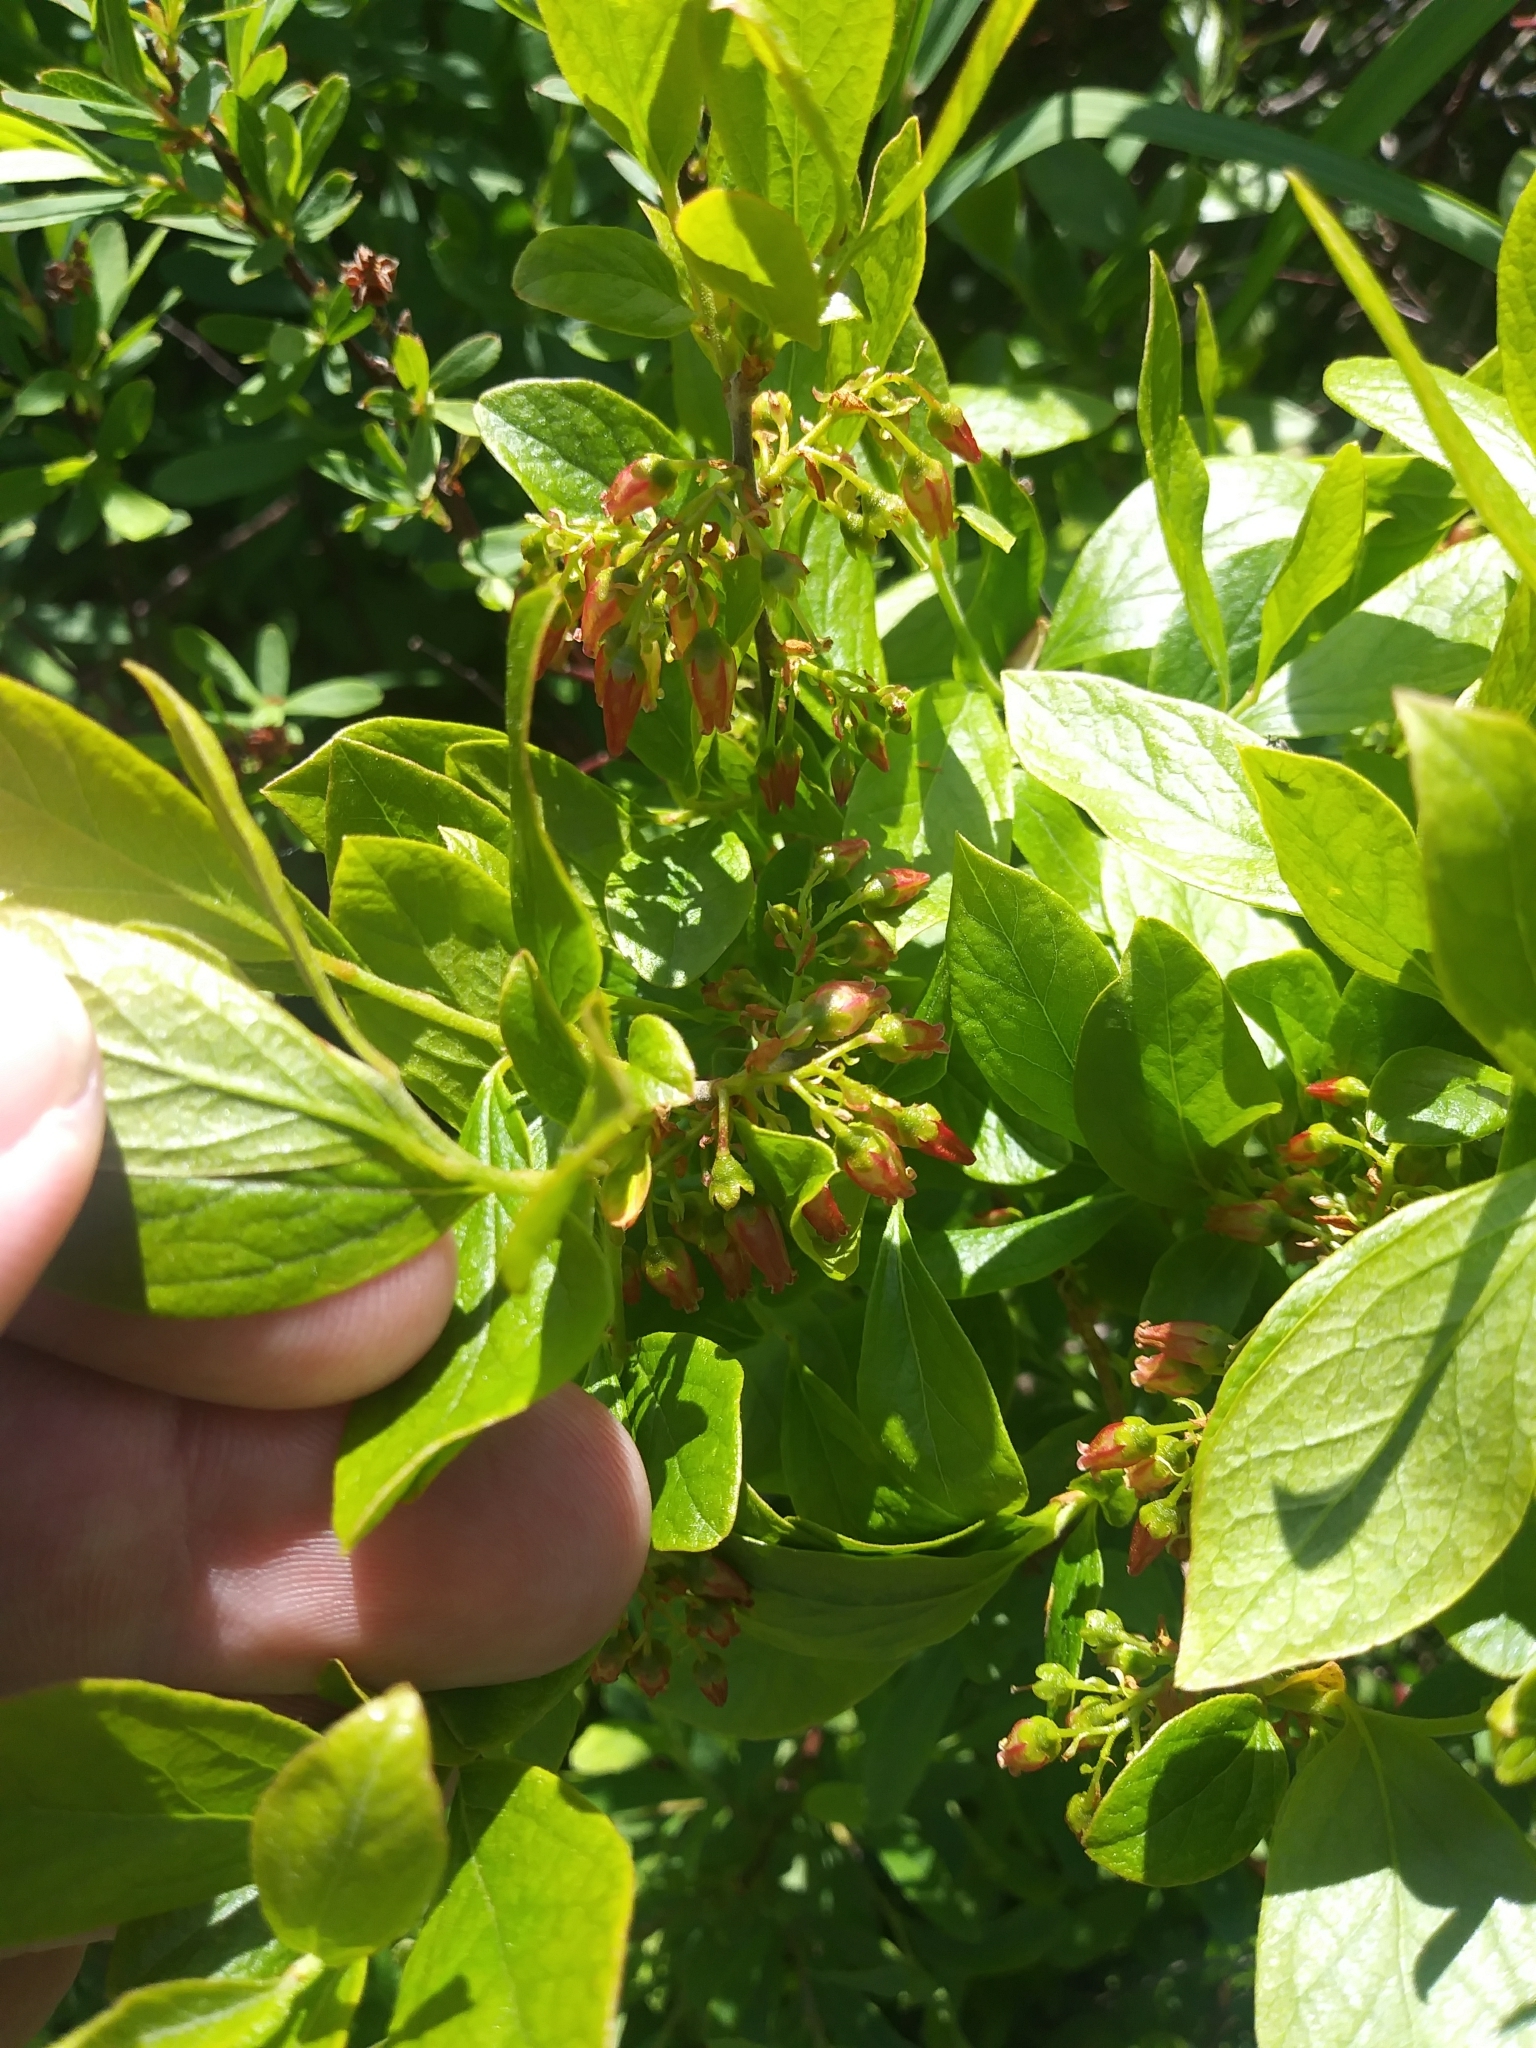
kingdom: Plantae
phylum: Tracheophyta
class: Magnoliopsida
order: Ericales
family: Ericaceae
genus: Gaylussacia
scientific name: Gaylussacia baccata
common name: Black huckleberry
